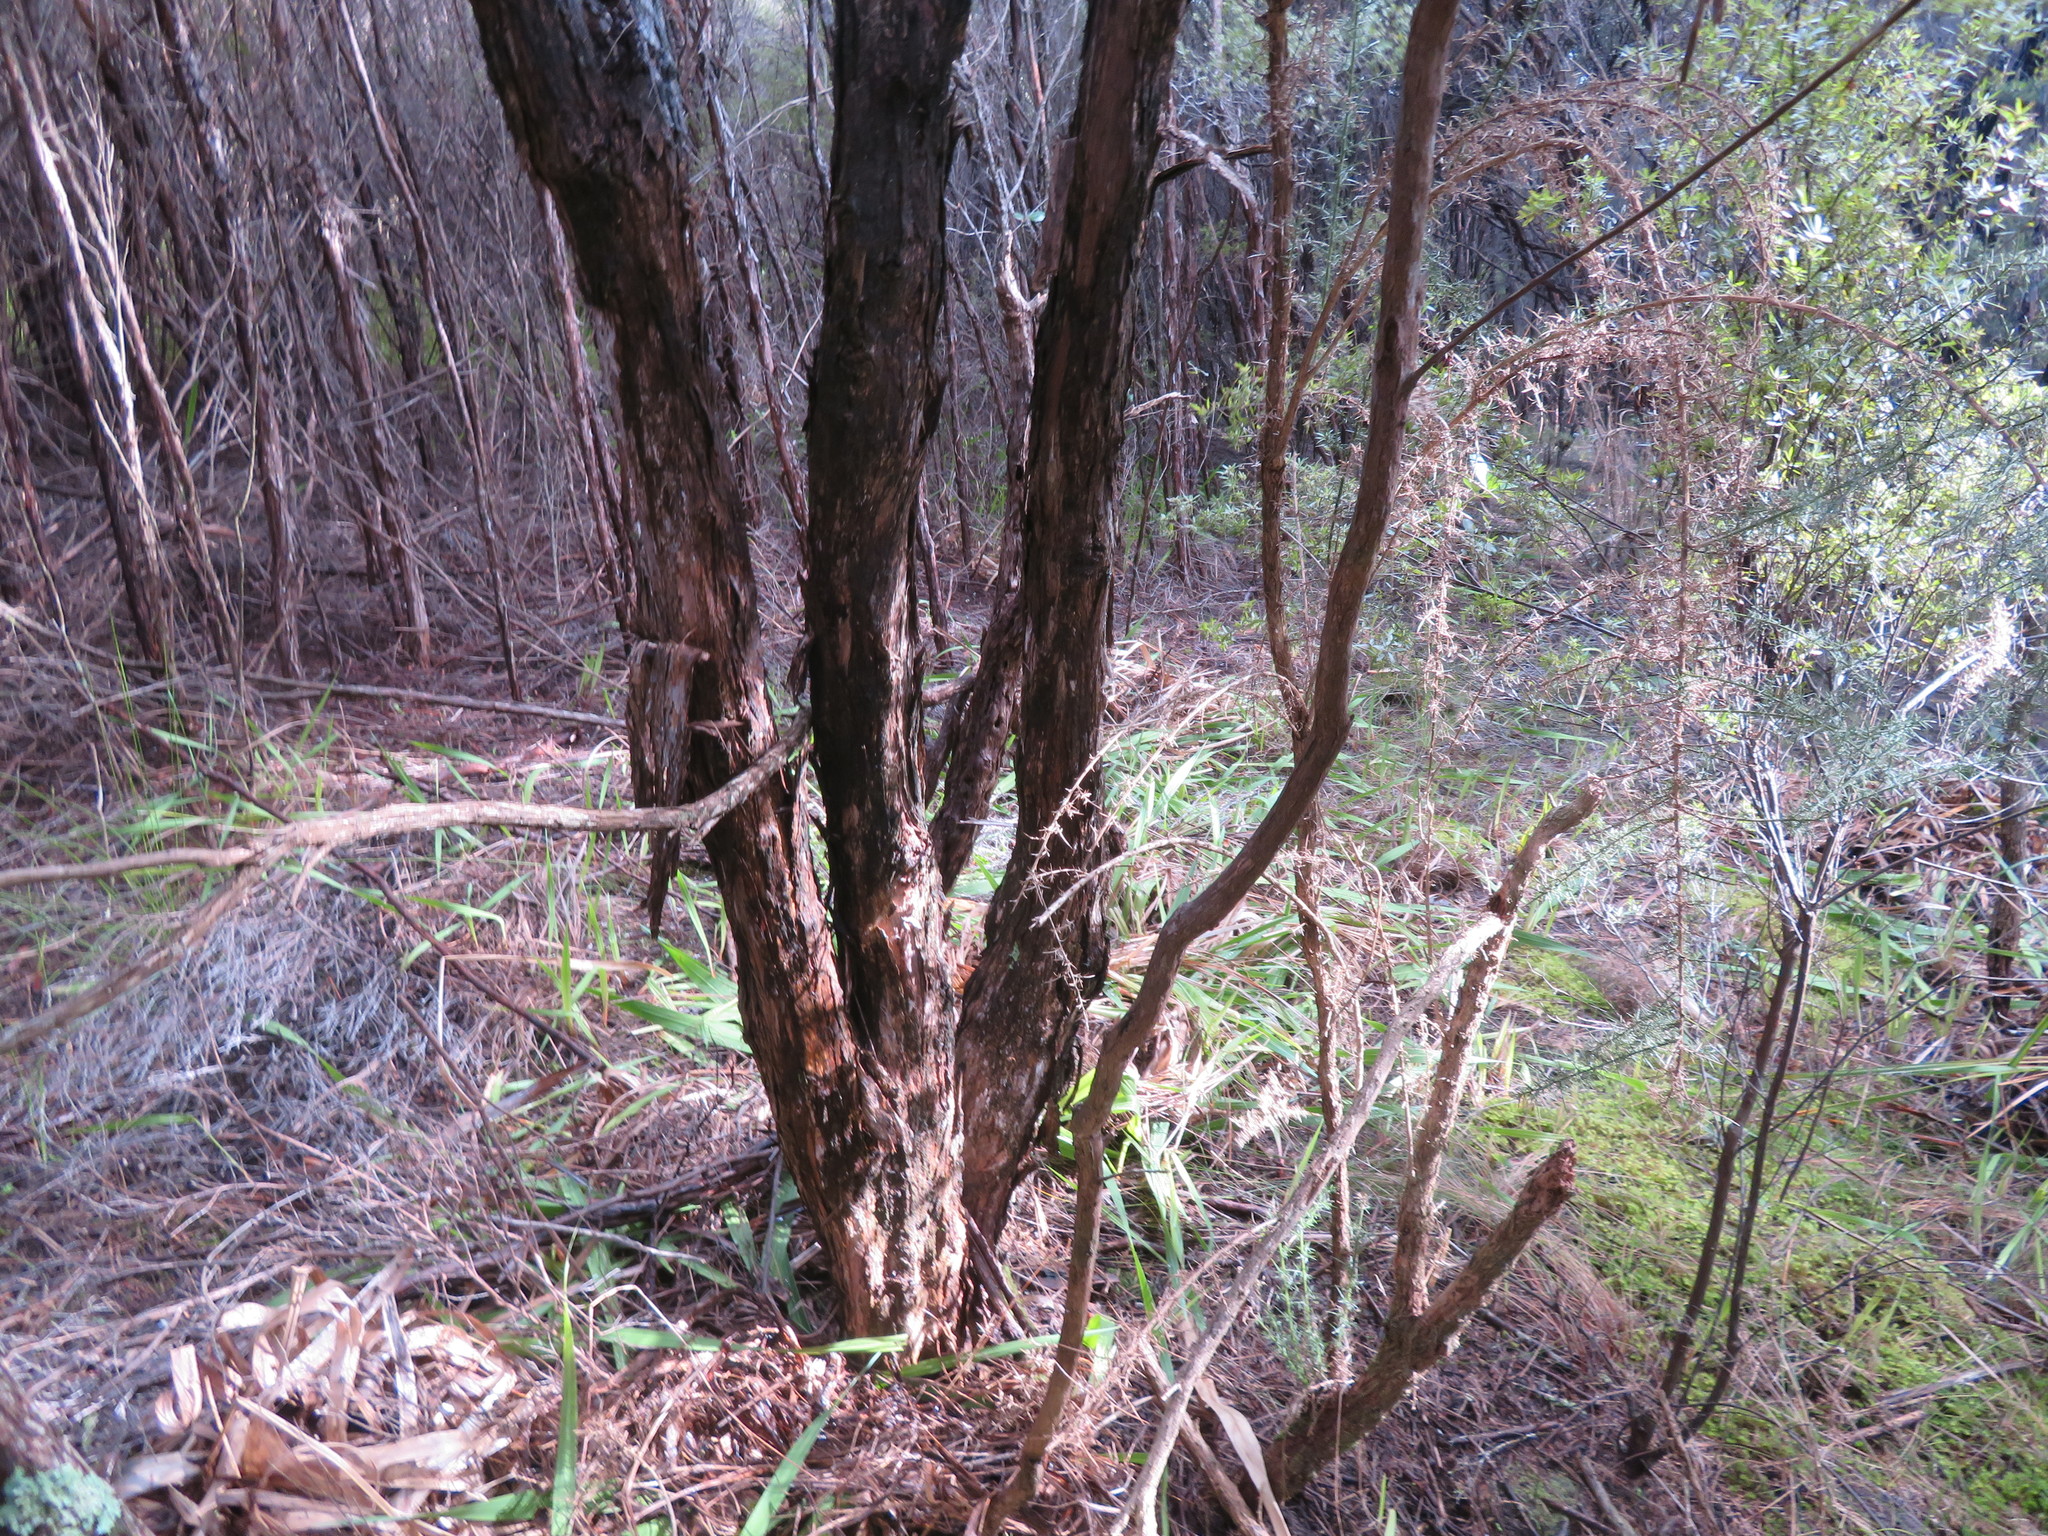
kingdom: Plantae
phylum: Bryophyta
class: Bryopsida
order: Ptychomniales
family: Ptychomniaceae
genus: Ptychomnion
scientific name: Ptychomnion aciculare
